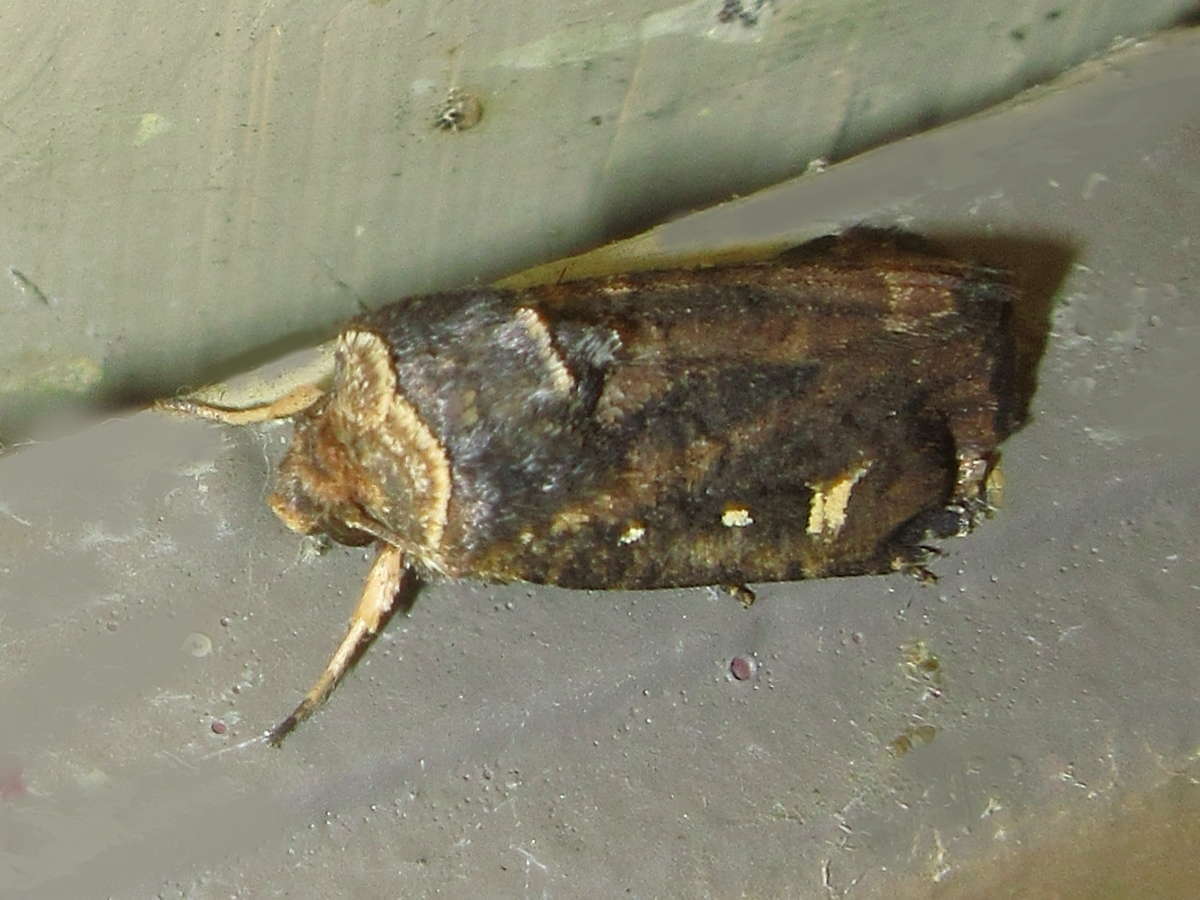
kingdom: Animalia
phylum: Arthropoda
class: Insecta
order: Lepidoptera
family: Noctuidae
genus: Proteuxoa
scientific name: Proteuxoa hydraecioides
